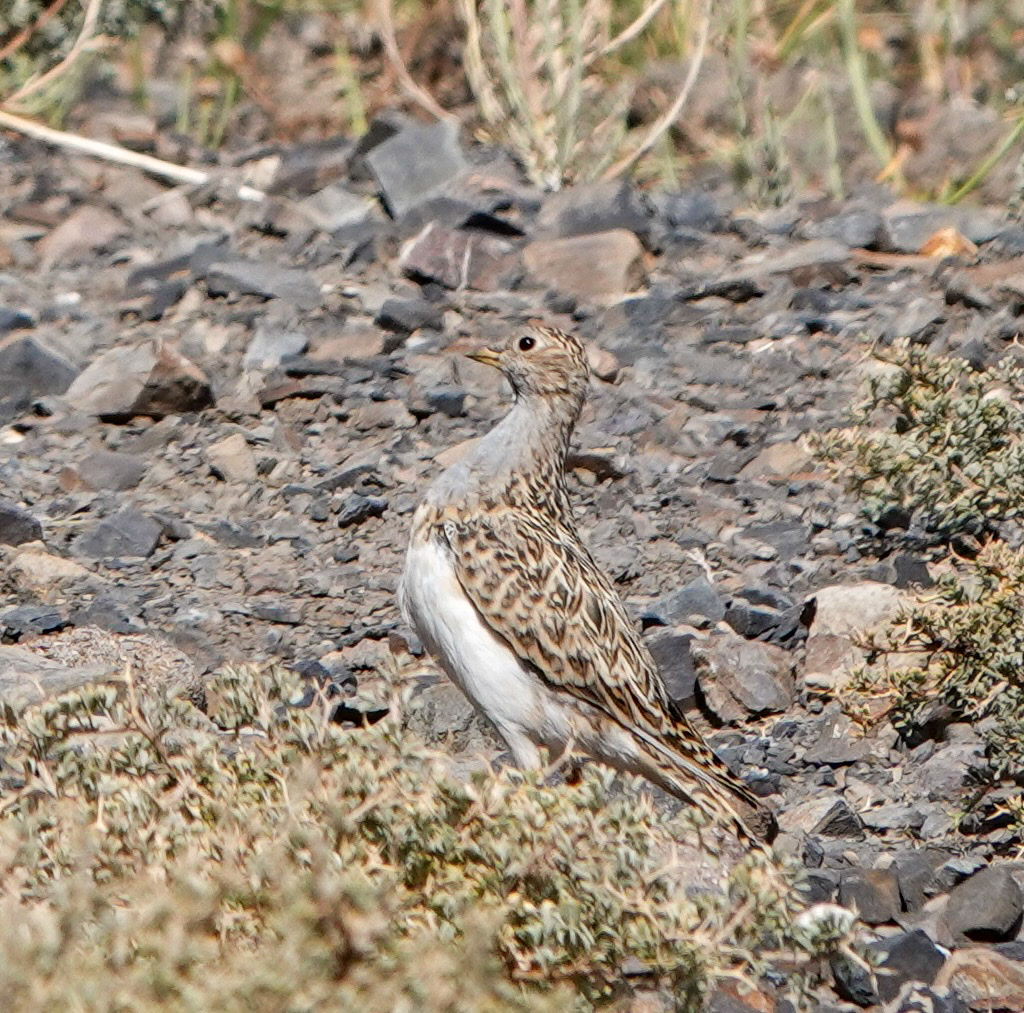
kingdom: Animalia
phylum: Chordata
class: Aves
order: Charadriiformes
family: Thinocoridae
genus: Thinocorus
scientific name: Thinocorus orbignyianus
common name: Grey-breasted seedsnipe
